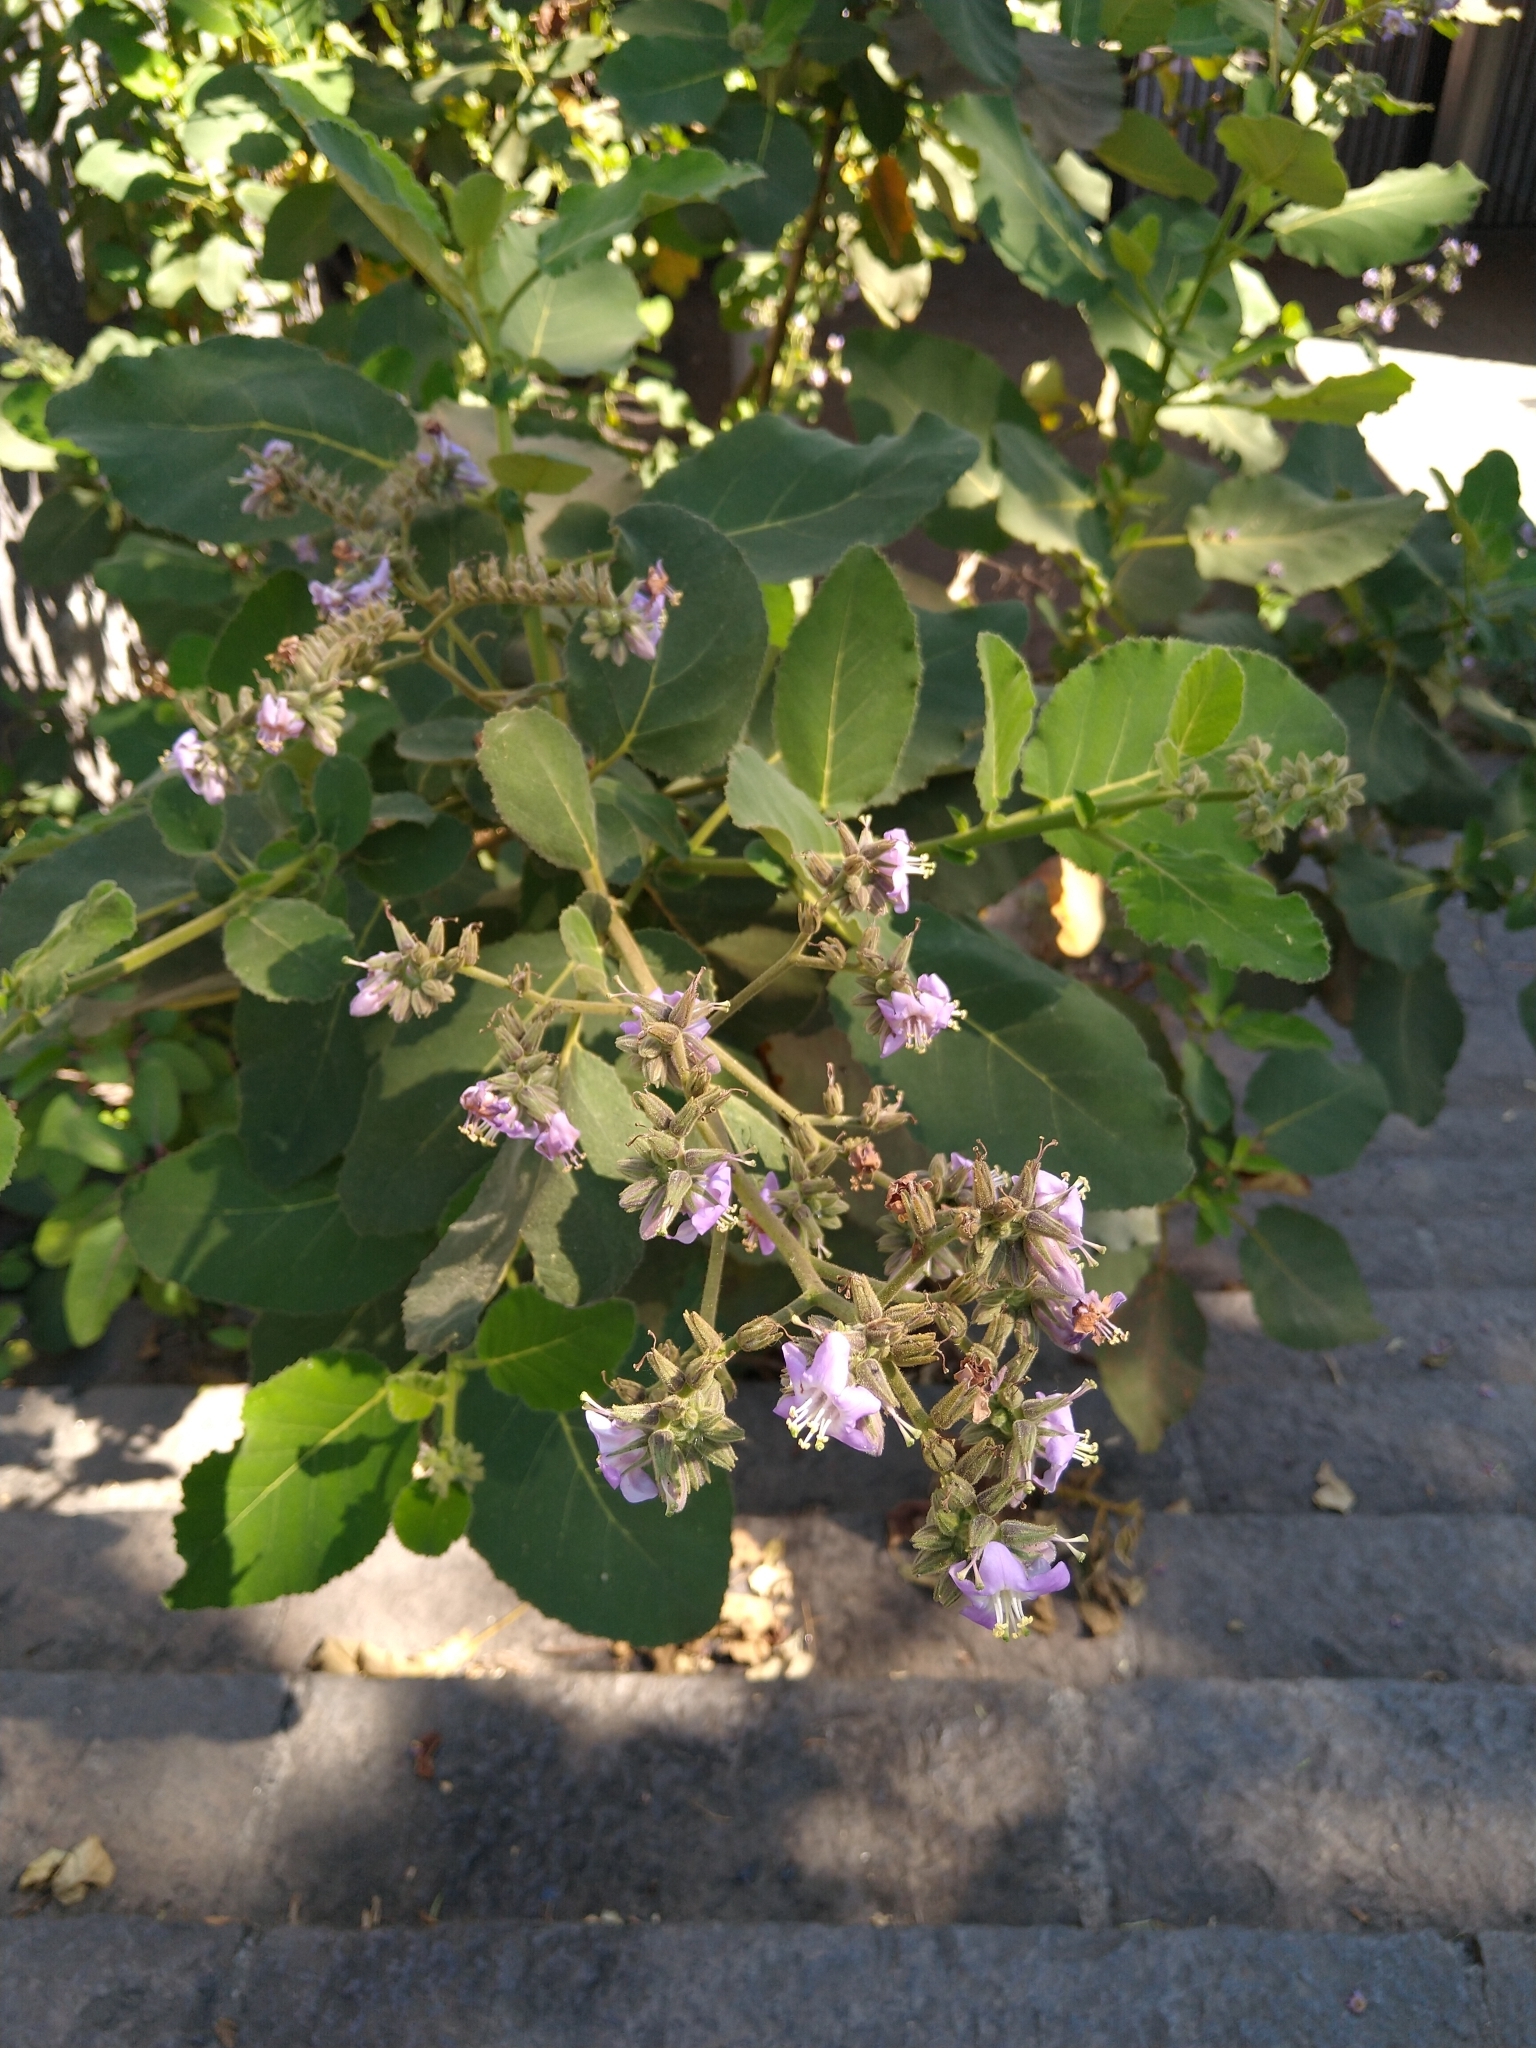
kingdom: Plantae
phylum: Tracheophyta
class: Magnoliopsida
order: Boraginales
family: Namaceae
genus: Wigandia
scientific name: Wigandia urens
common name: Caracus wigandia
